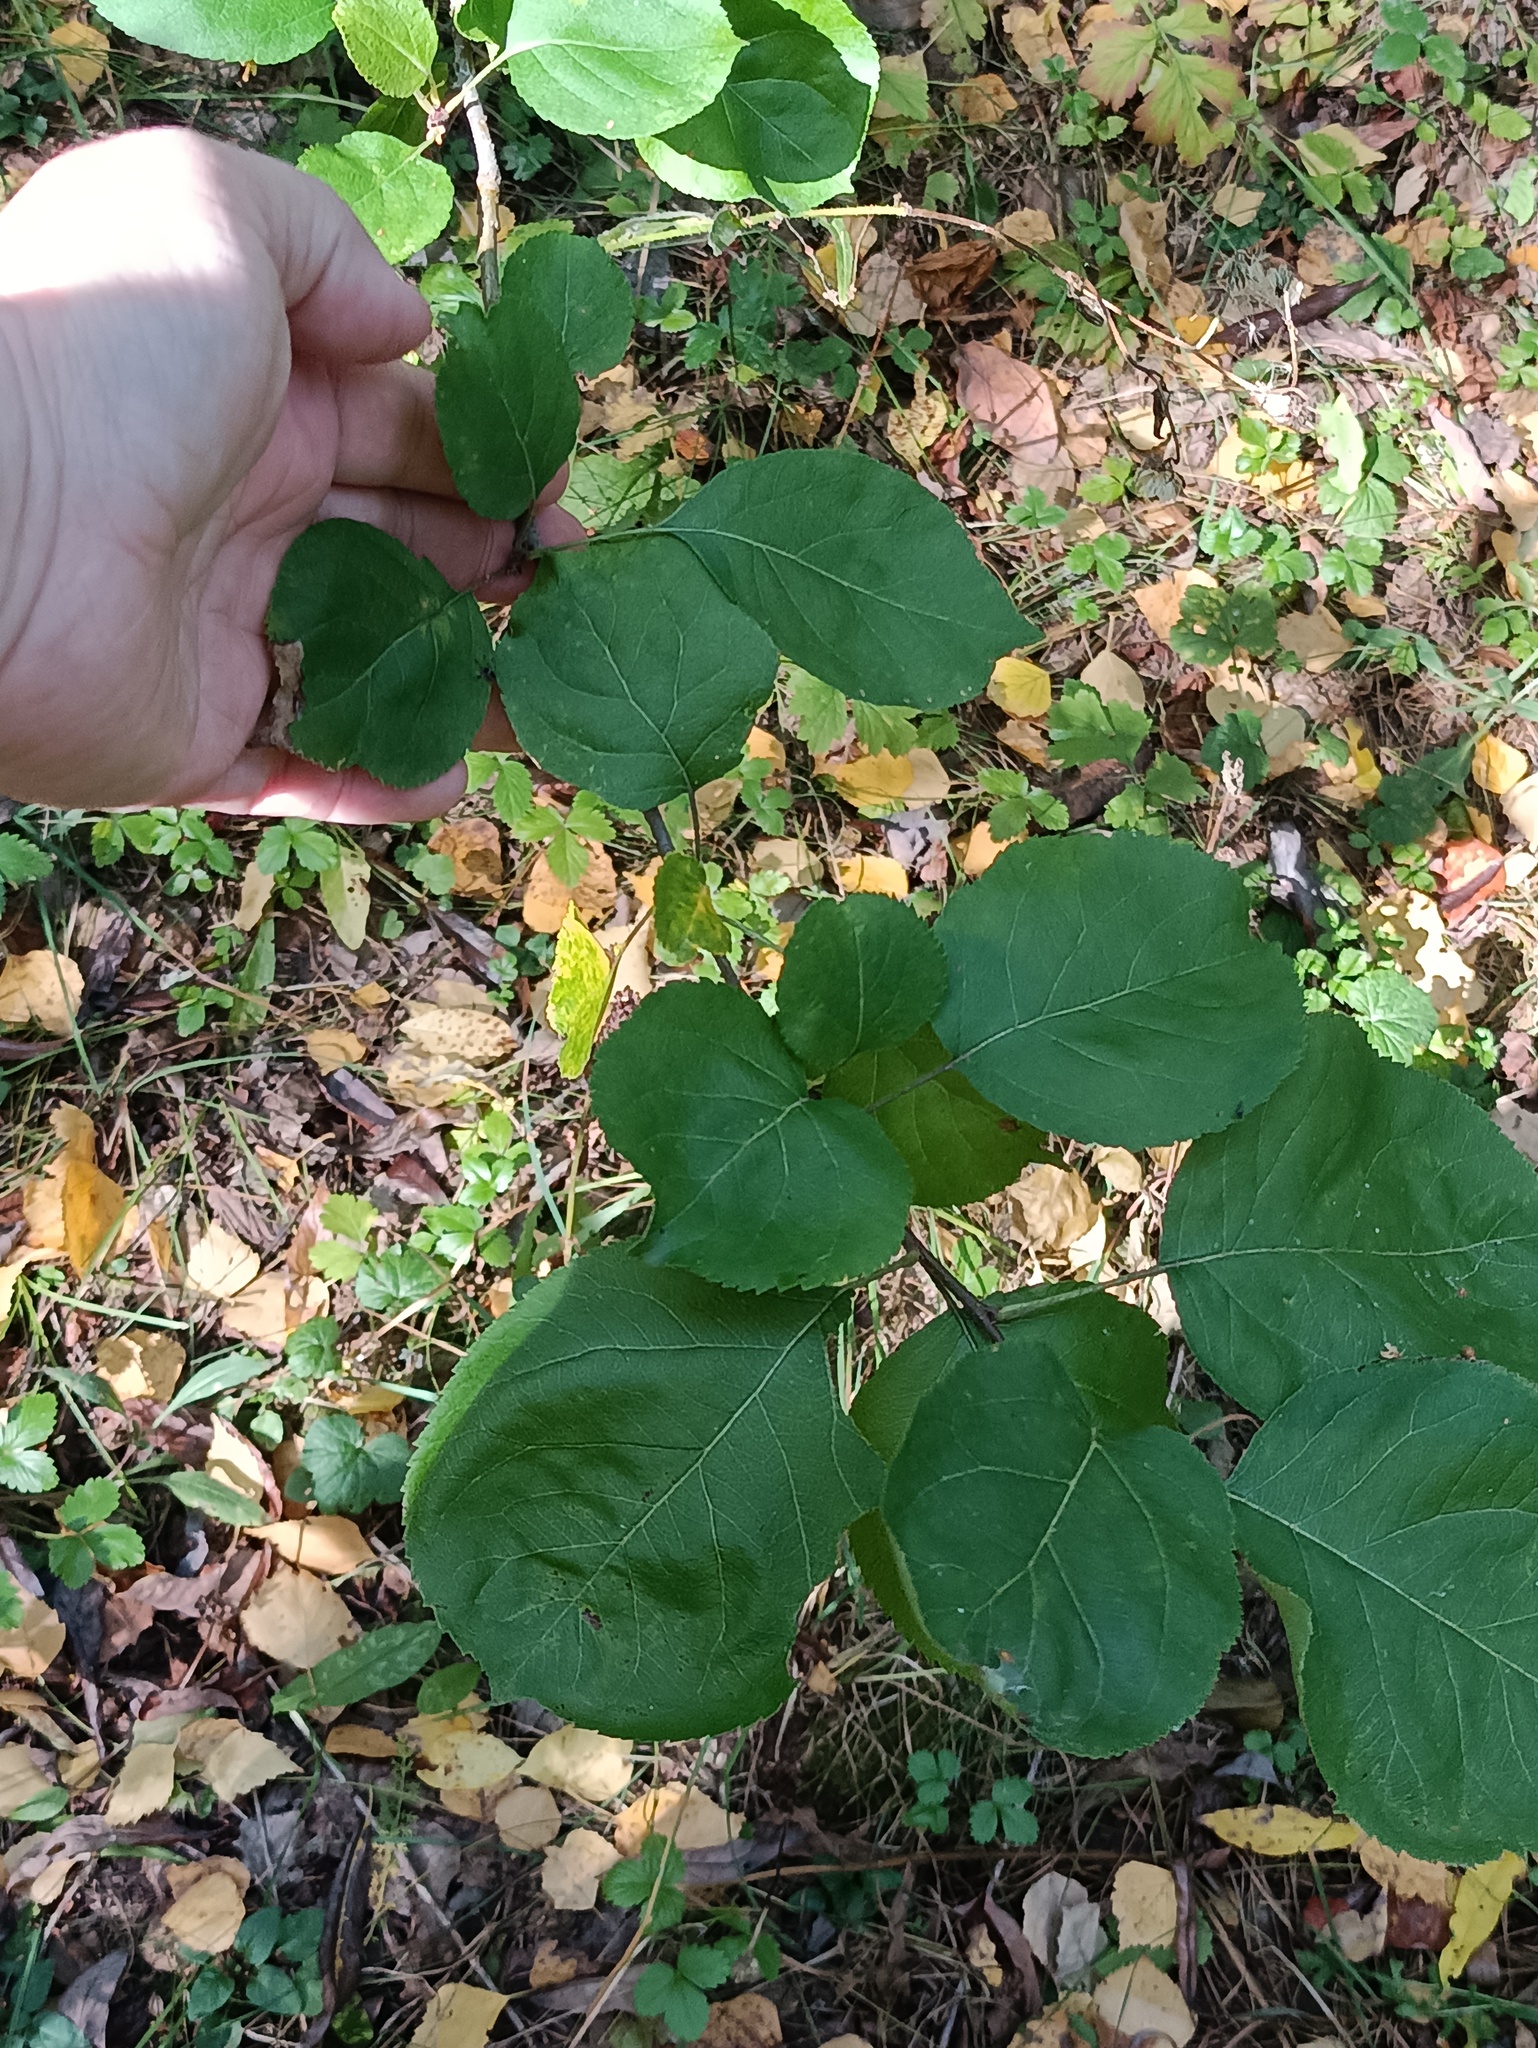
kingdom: Plantae
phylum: Tracheophyta
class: Magnoliopsida
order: Rosales
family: Rosaceae
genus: Malus
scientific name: Malus domestica
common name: Apple
